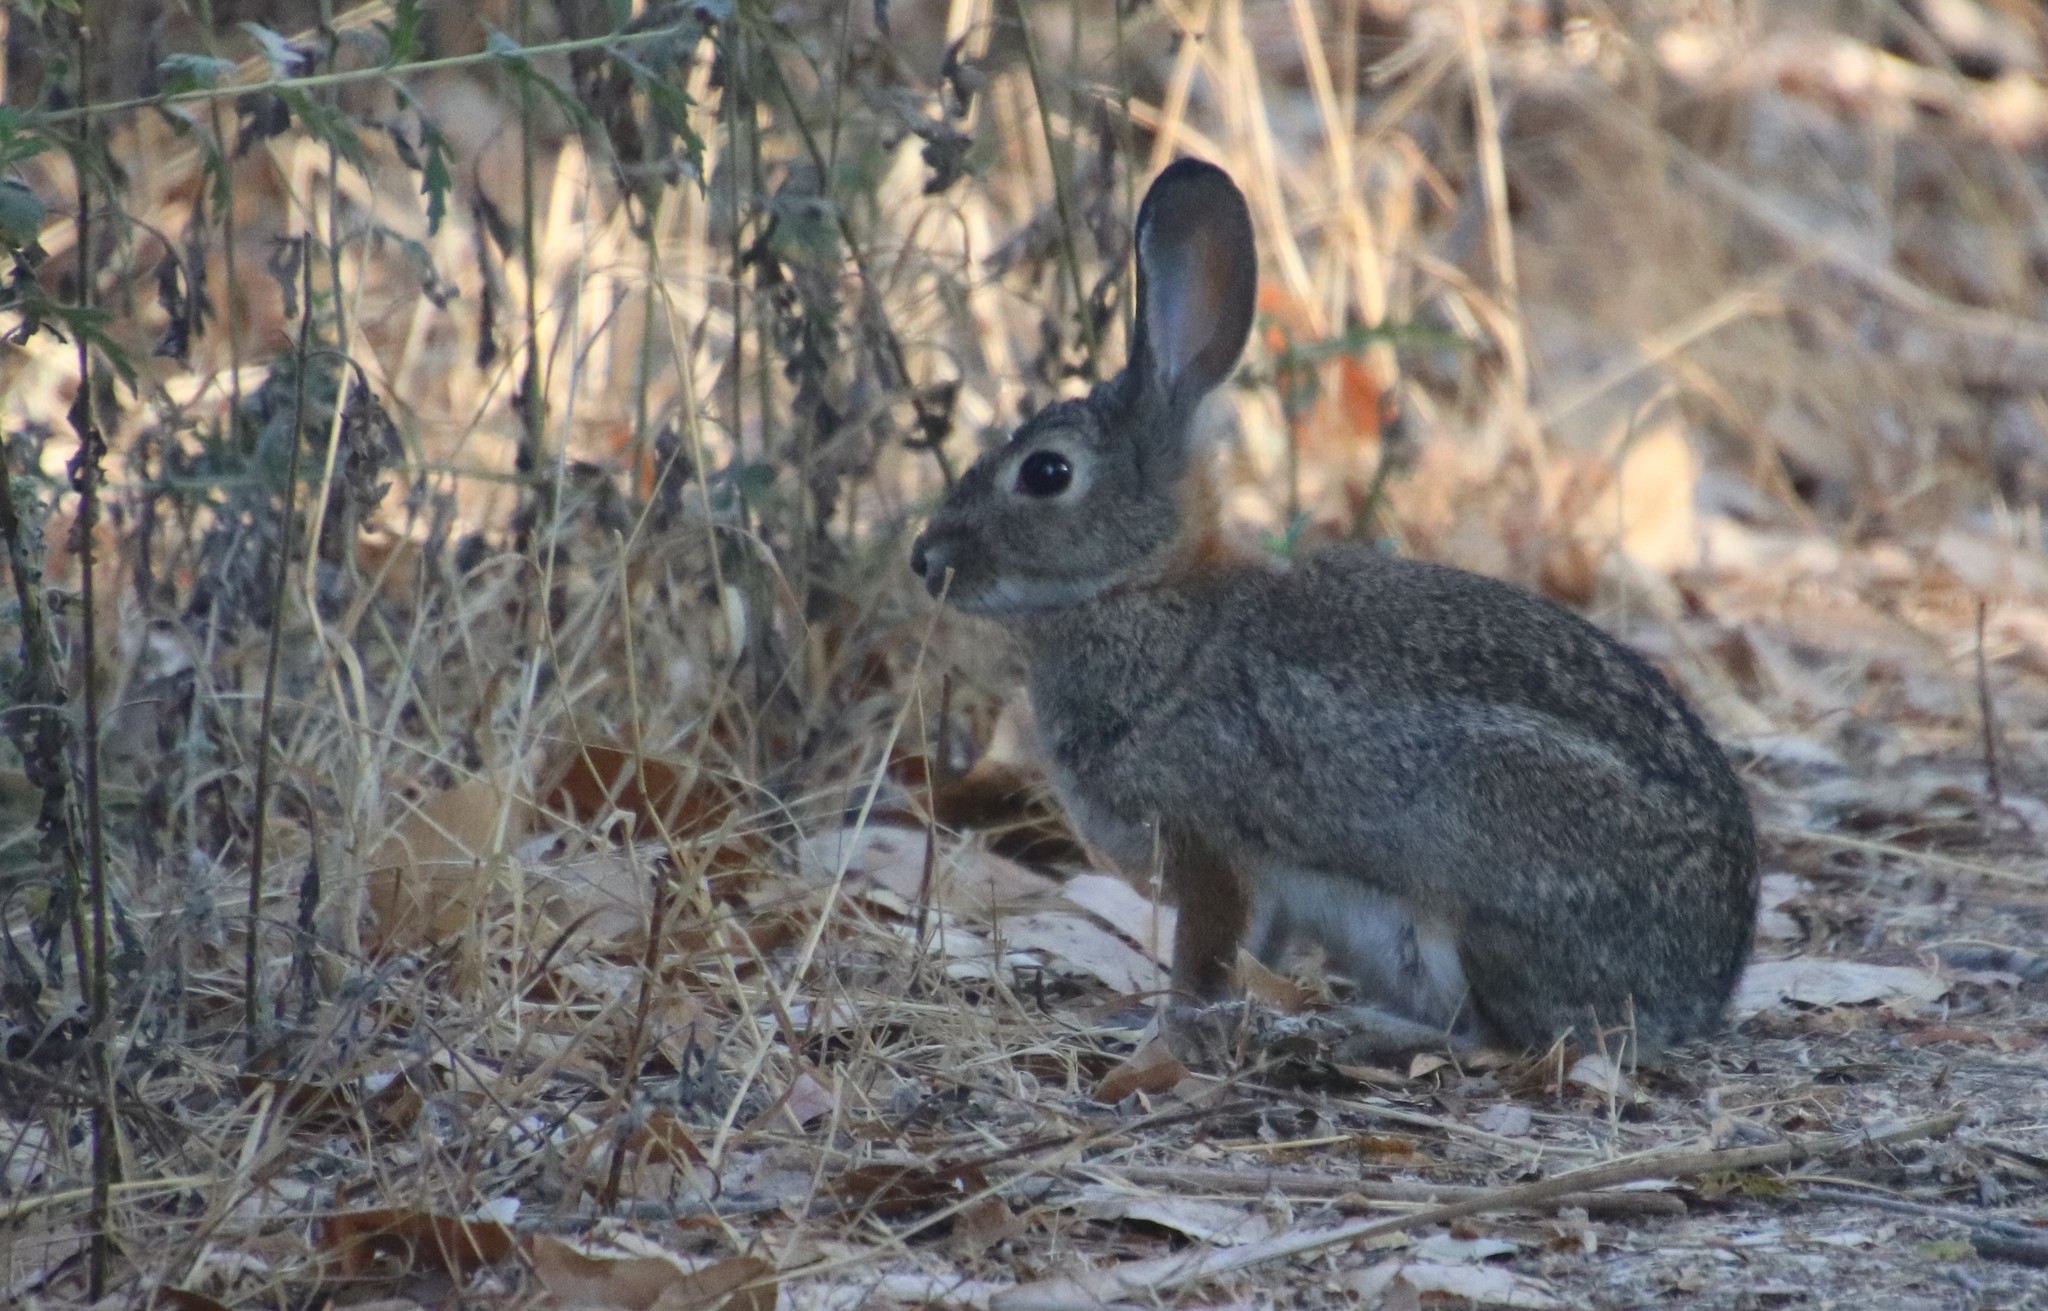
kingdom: Animalia
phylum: Chordata
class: Mammalia
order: Lagomorpha
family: Leporidae
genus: Sylvilagus
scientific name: Sylvilagus audubonii
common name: Desert cottontail
